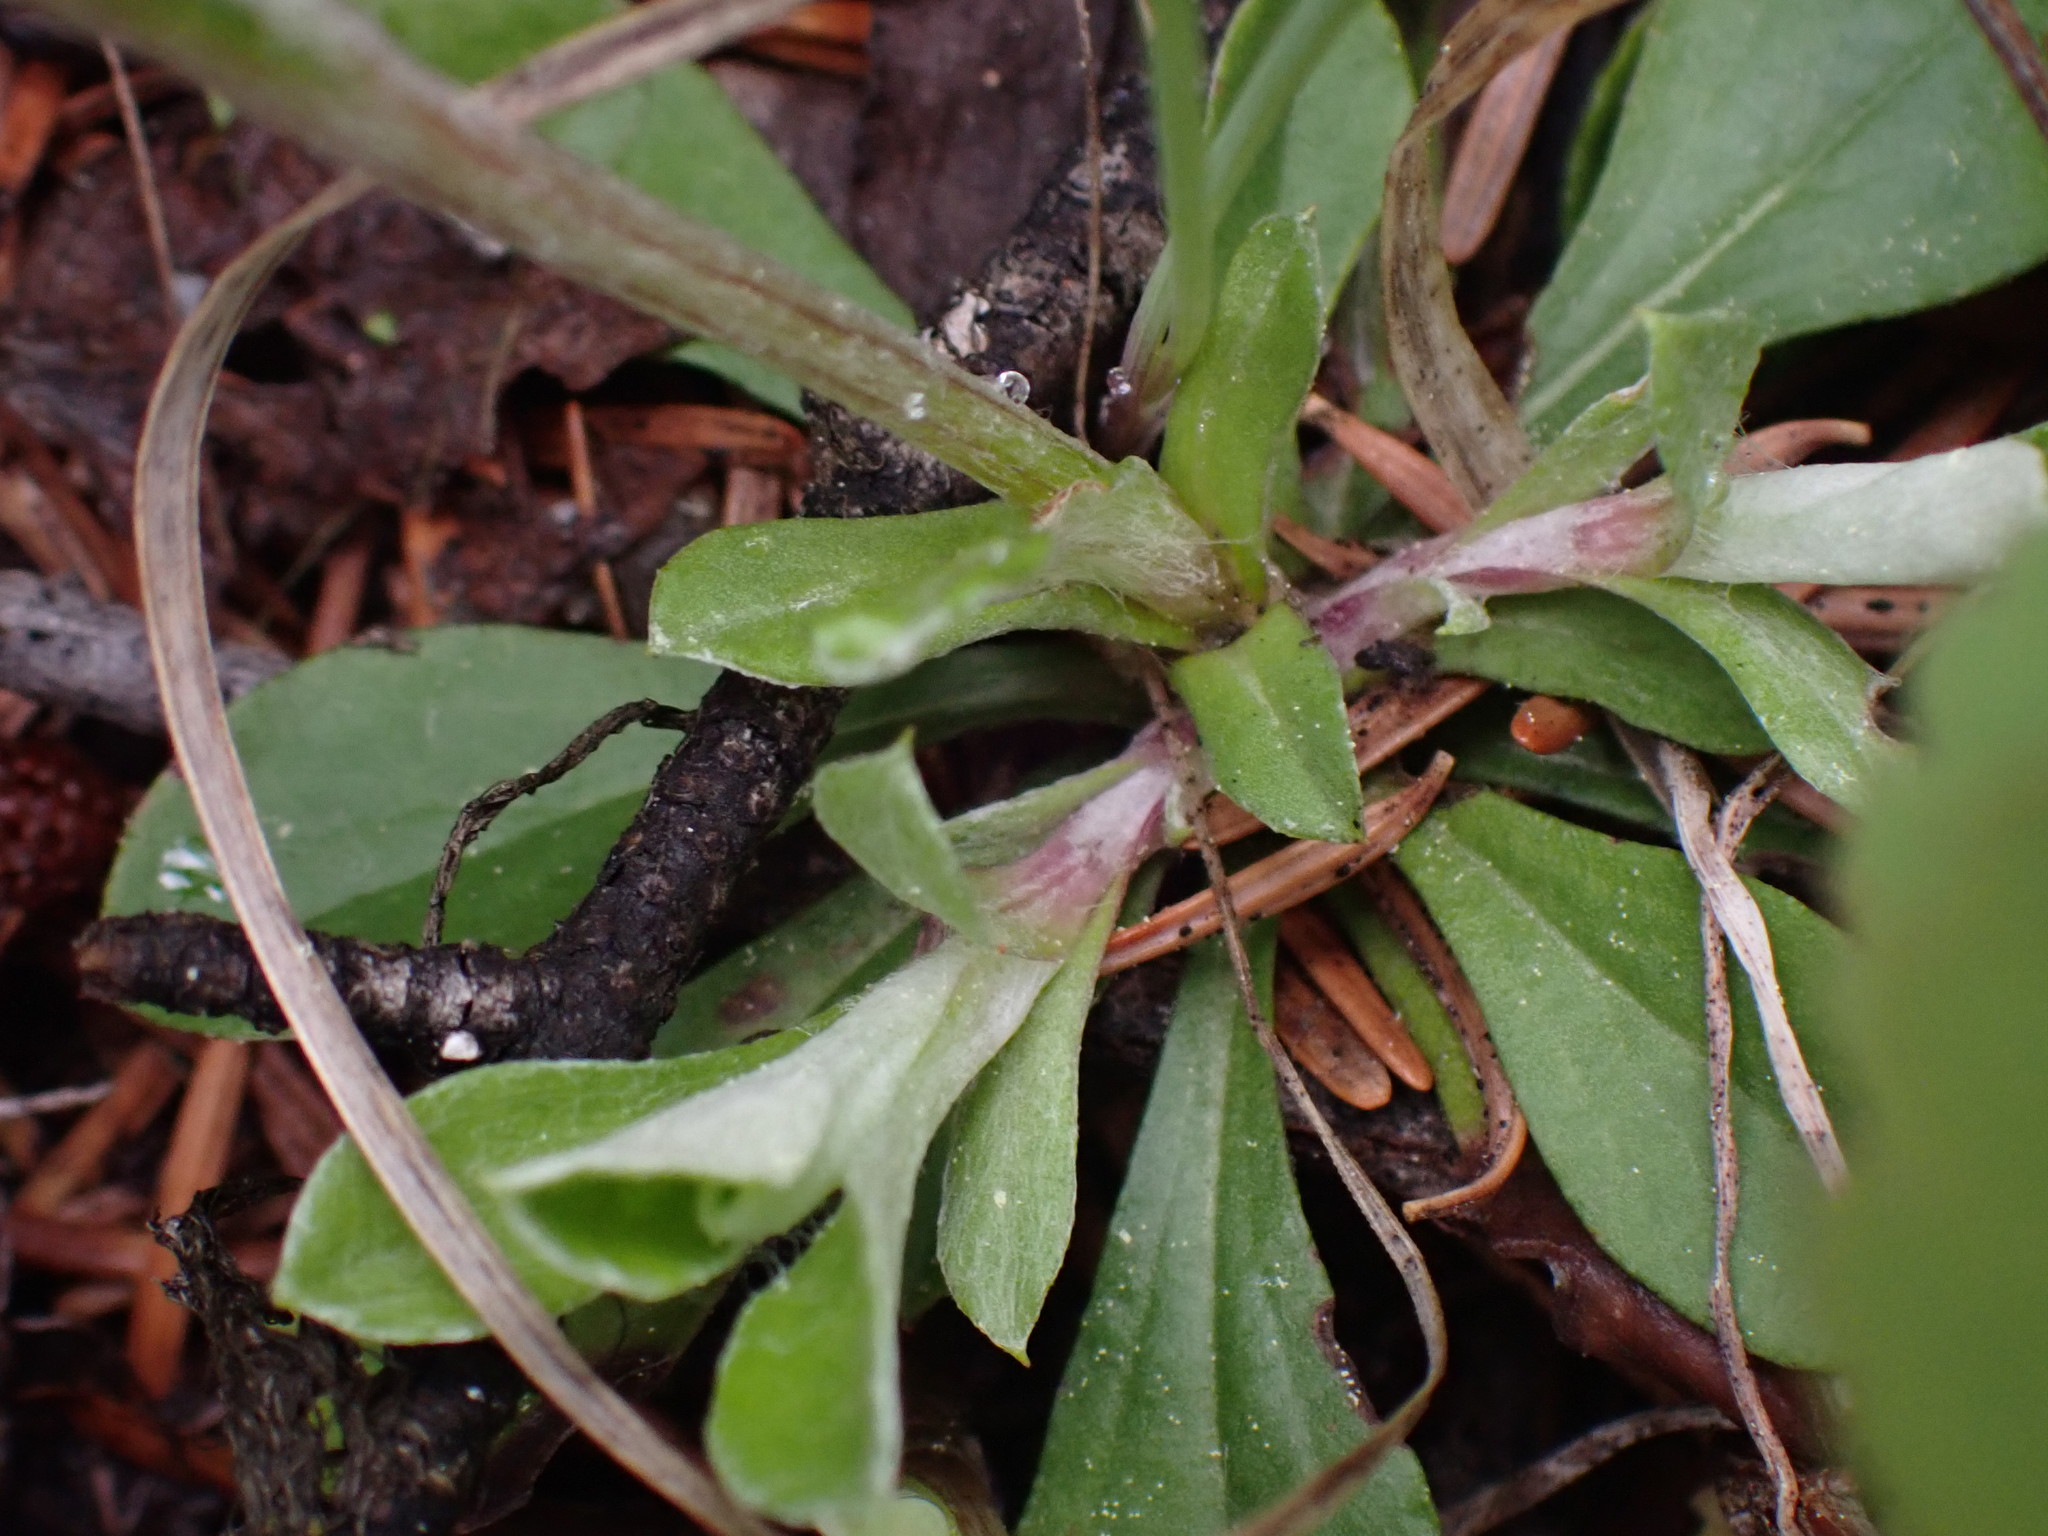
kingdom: Plantae
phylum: Tracheophyta
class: Magnoliopsida
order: Asterales
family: Asteraceae
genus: Antennaria
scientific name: Antennaria howellii
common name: Howell's pussytoes
